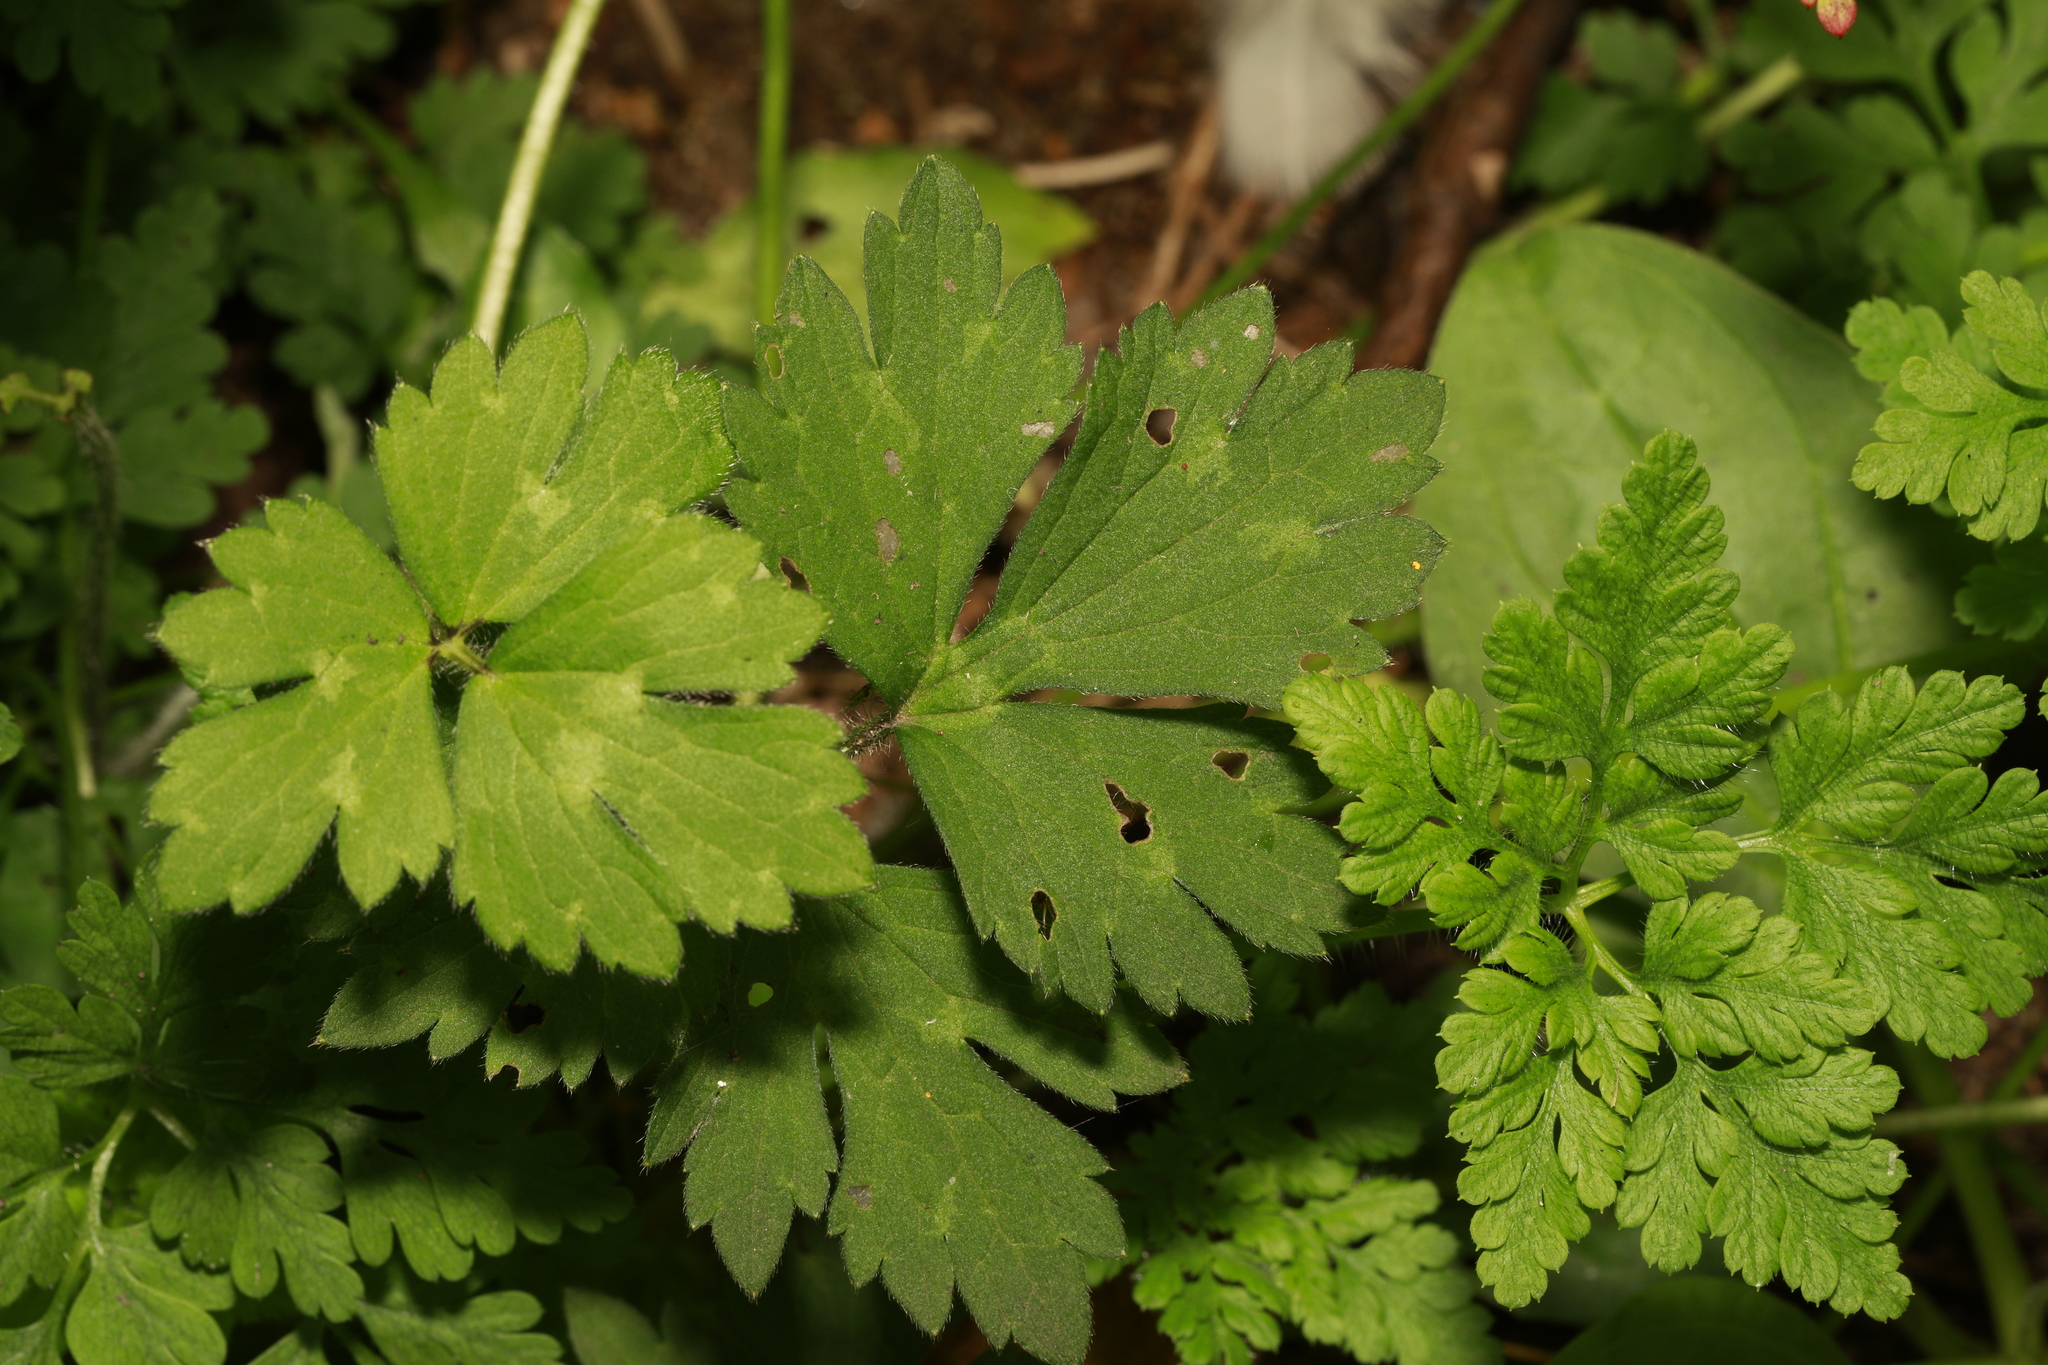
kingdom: Plantae
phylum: Tracheophyta
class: Magnoliopsida
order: Ranunculales
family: Ranunculaceae
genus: Ranunculus
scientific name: Ranunculus repens
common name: Creeping buttercup
